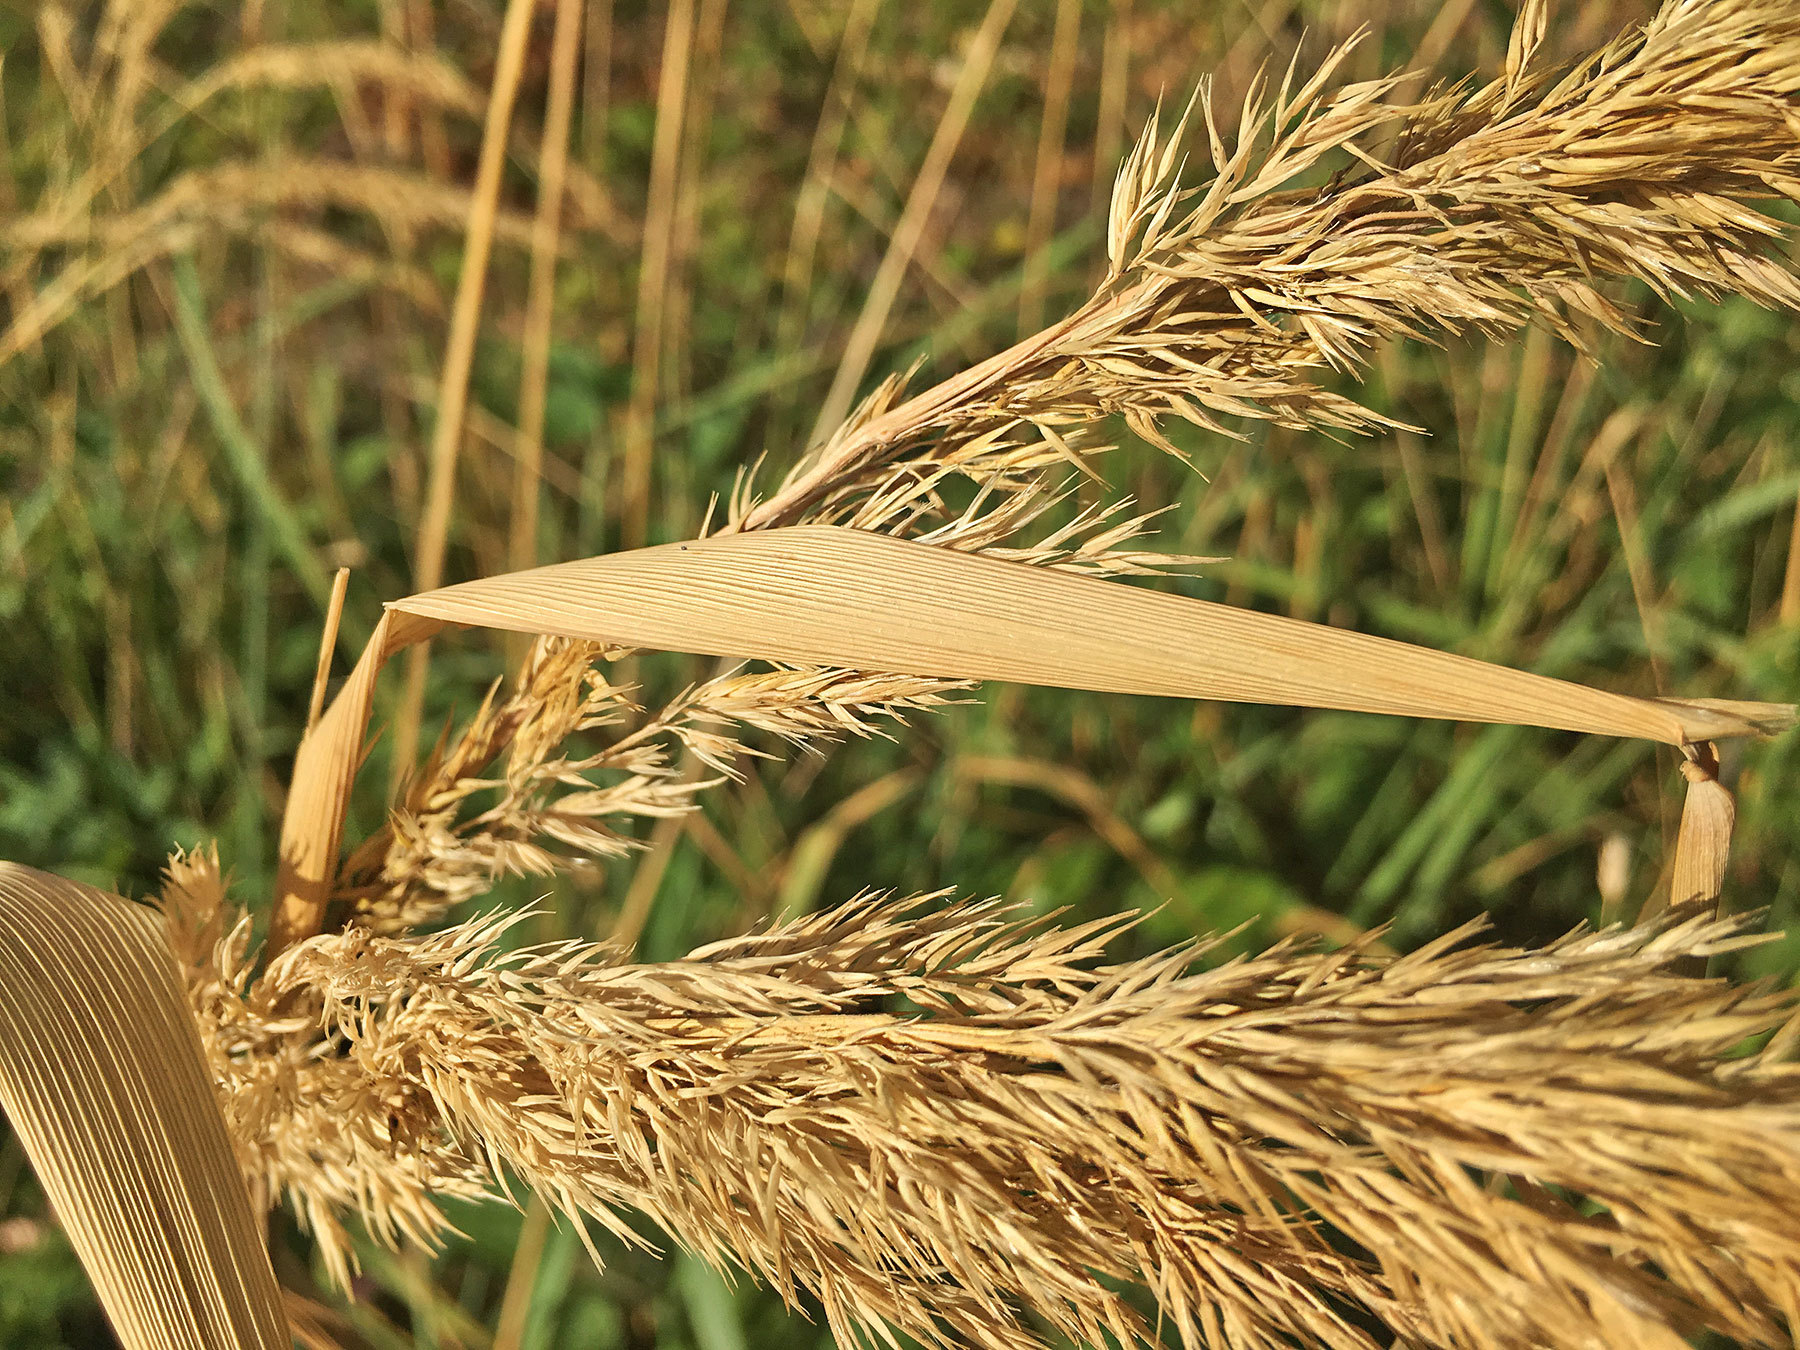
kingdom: Plantae
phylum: Tracheophyta
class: Liliopsida
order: Poales
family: Poaceae
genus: Calamagrostis
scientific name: Calamagrostis epigejos
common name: Wood small-reed
